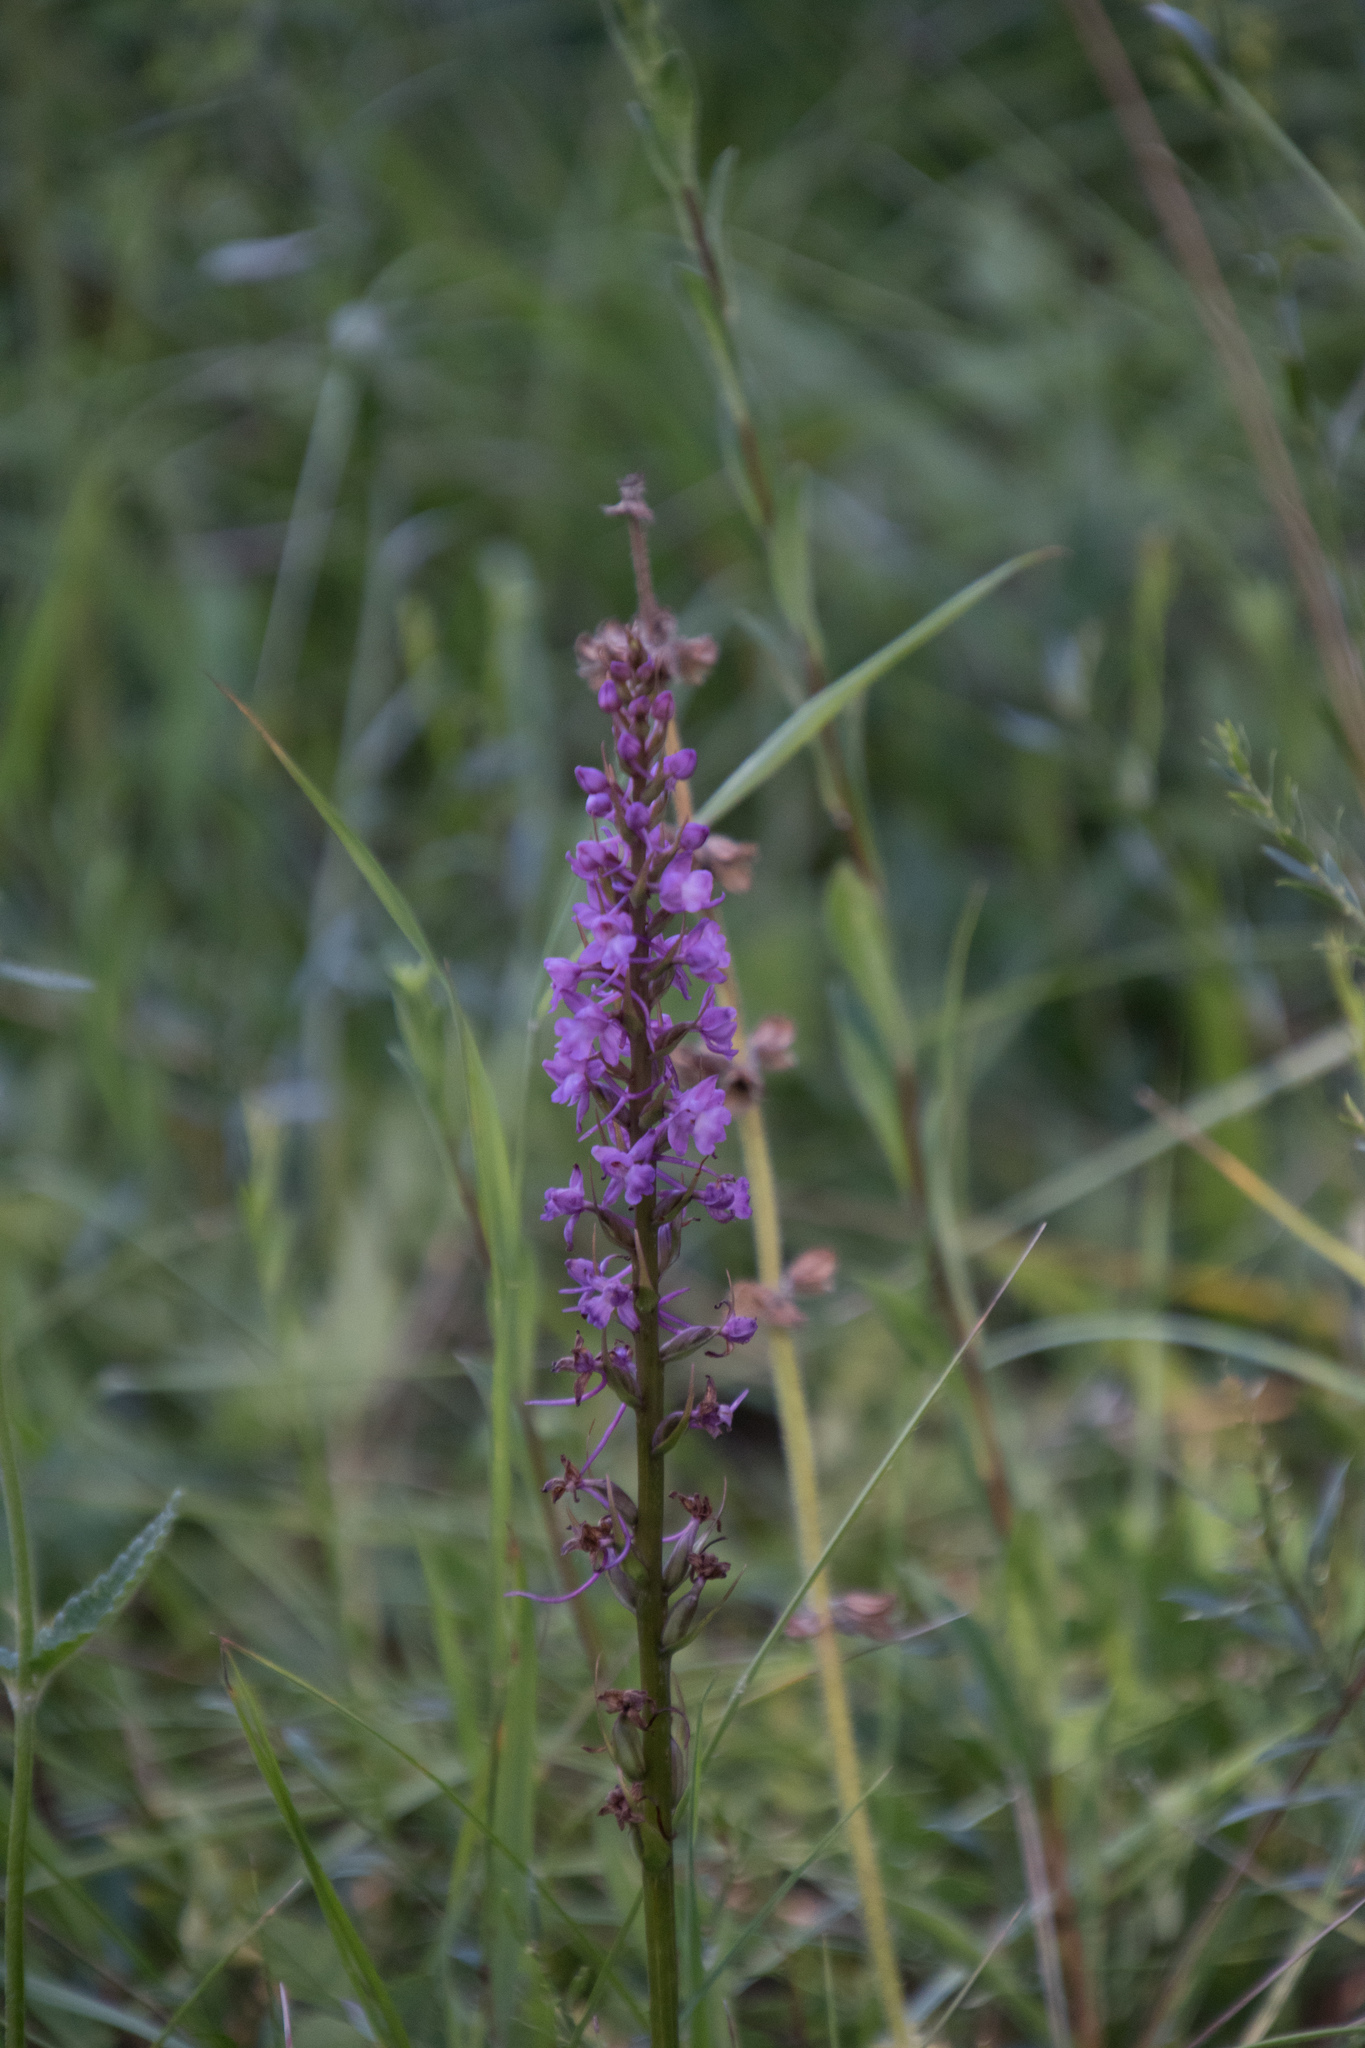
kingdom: Plantae
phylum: Tracheophyta
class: Liliopsida
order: Asparagales
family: Orchidaceae
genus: Gymnadenia
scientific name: Gymnadenia conopsea
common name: Fragrant orchid
